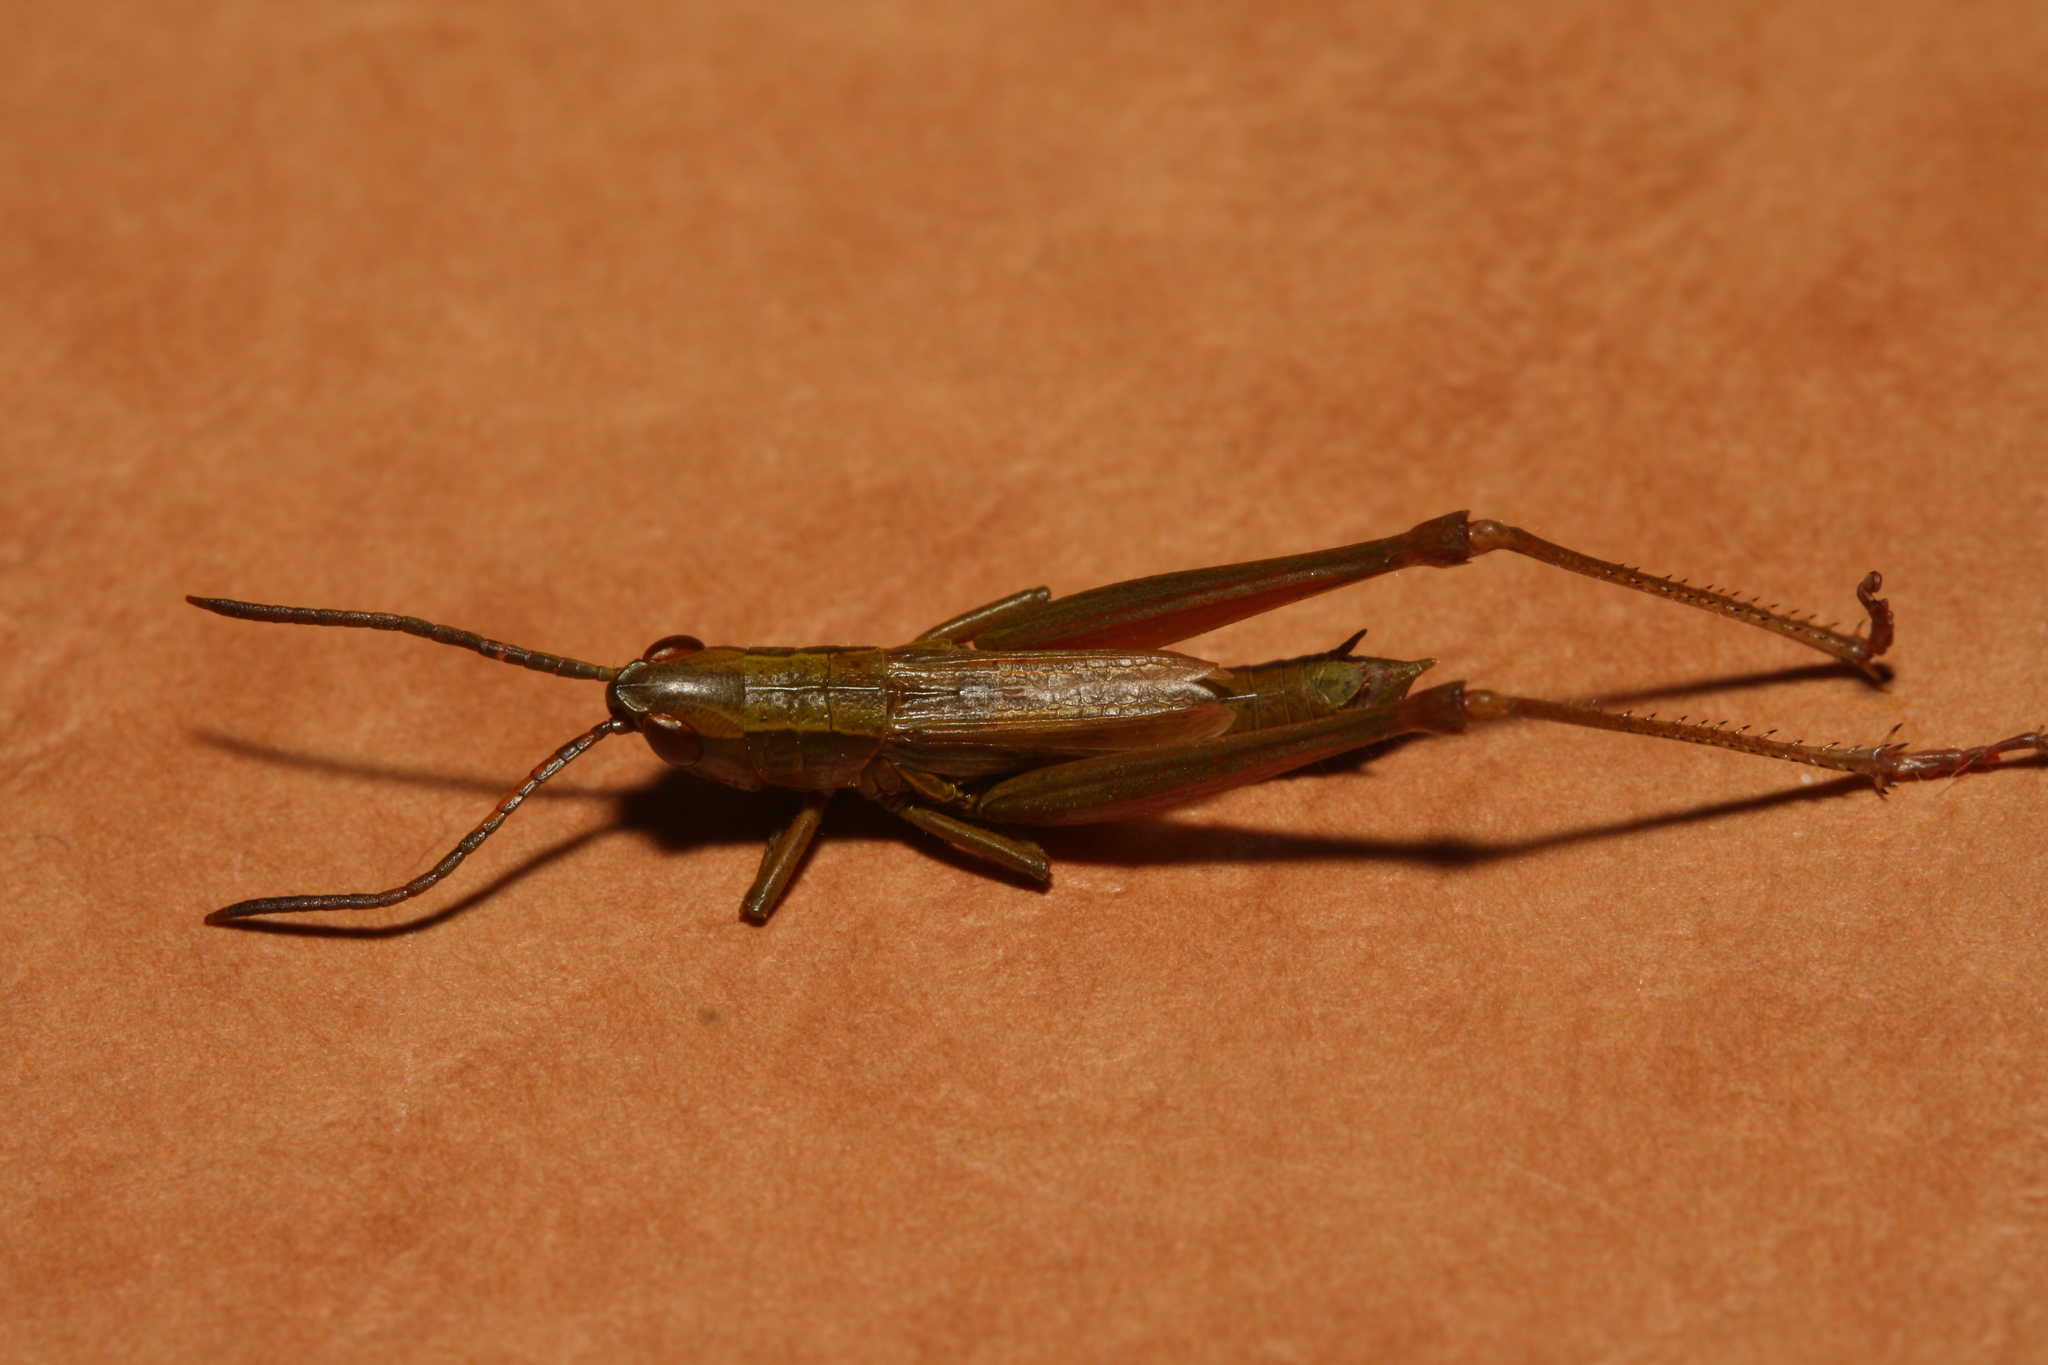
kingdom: Animalia
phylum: Arthropoda
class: Insecta
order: Orthoptera
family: Acrididae
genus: Euthystira
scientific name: Euthystira brachyptera
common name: Small gold grasshopper
